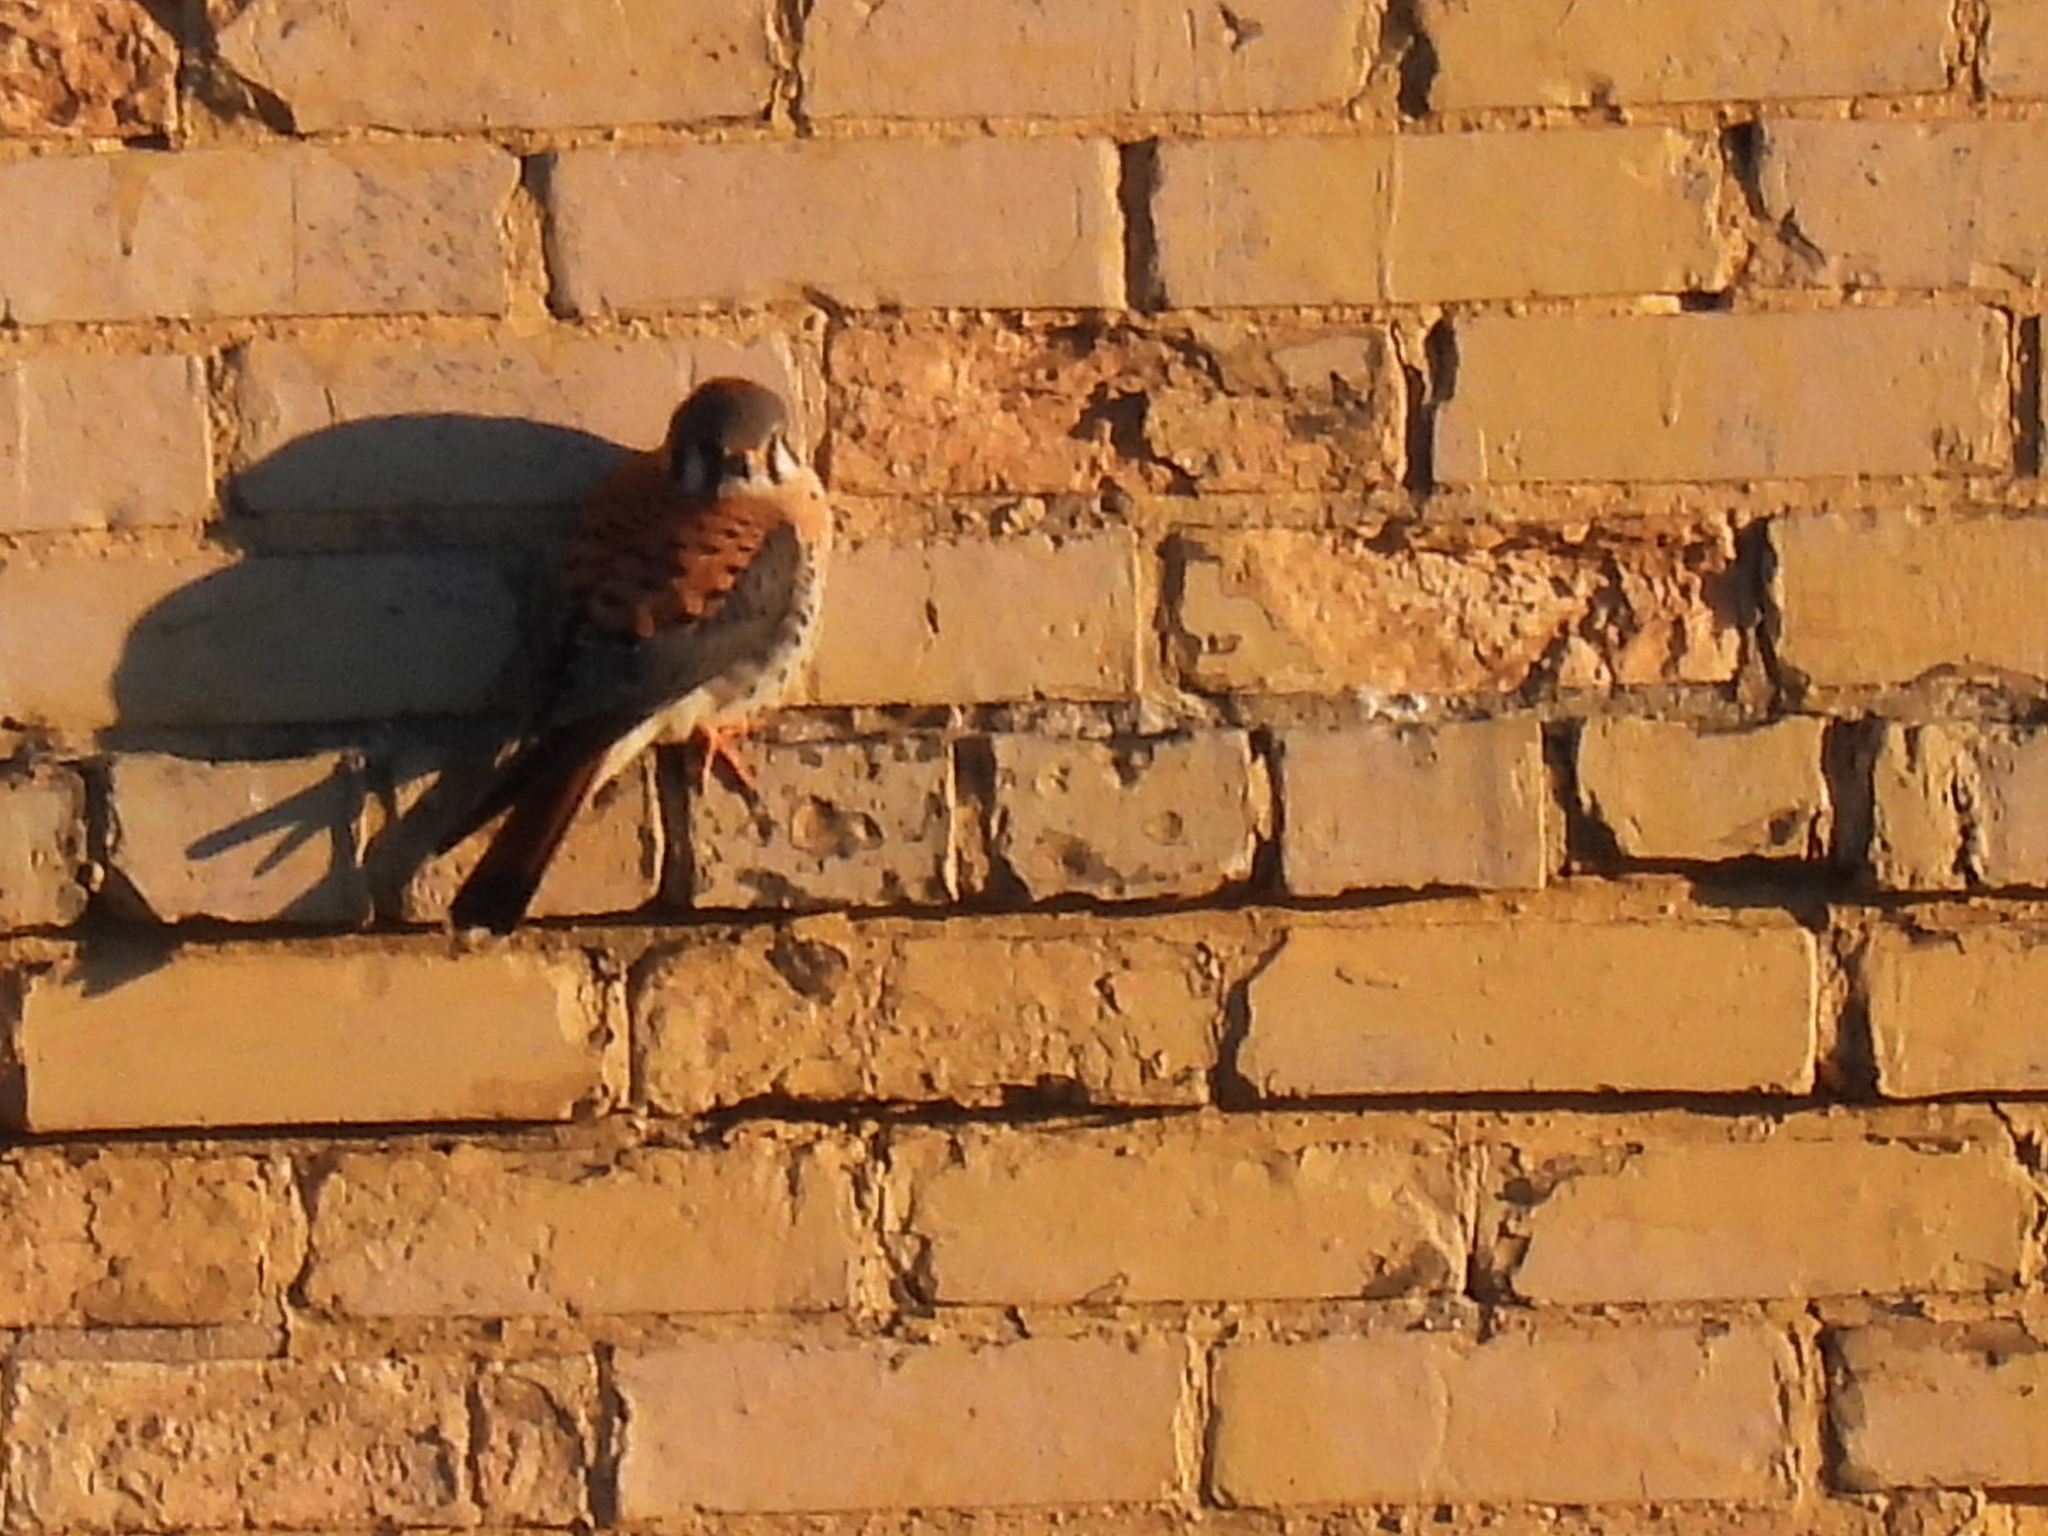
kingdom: Animalia
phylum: Chordata
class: Aves
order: Falconiformes
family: Falconidae
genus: Falco
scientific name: Falco sparverius
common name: American kestrel
